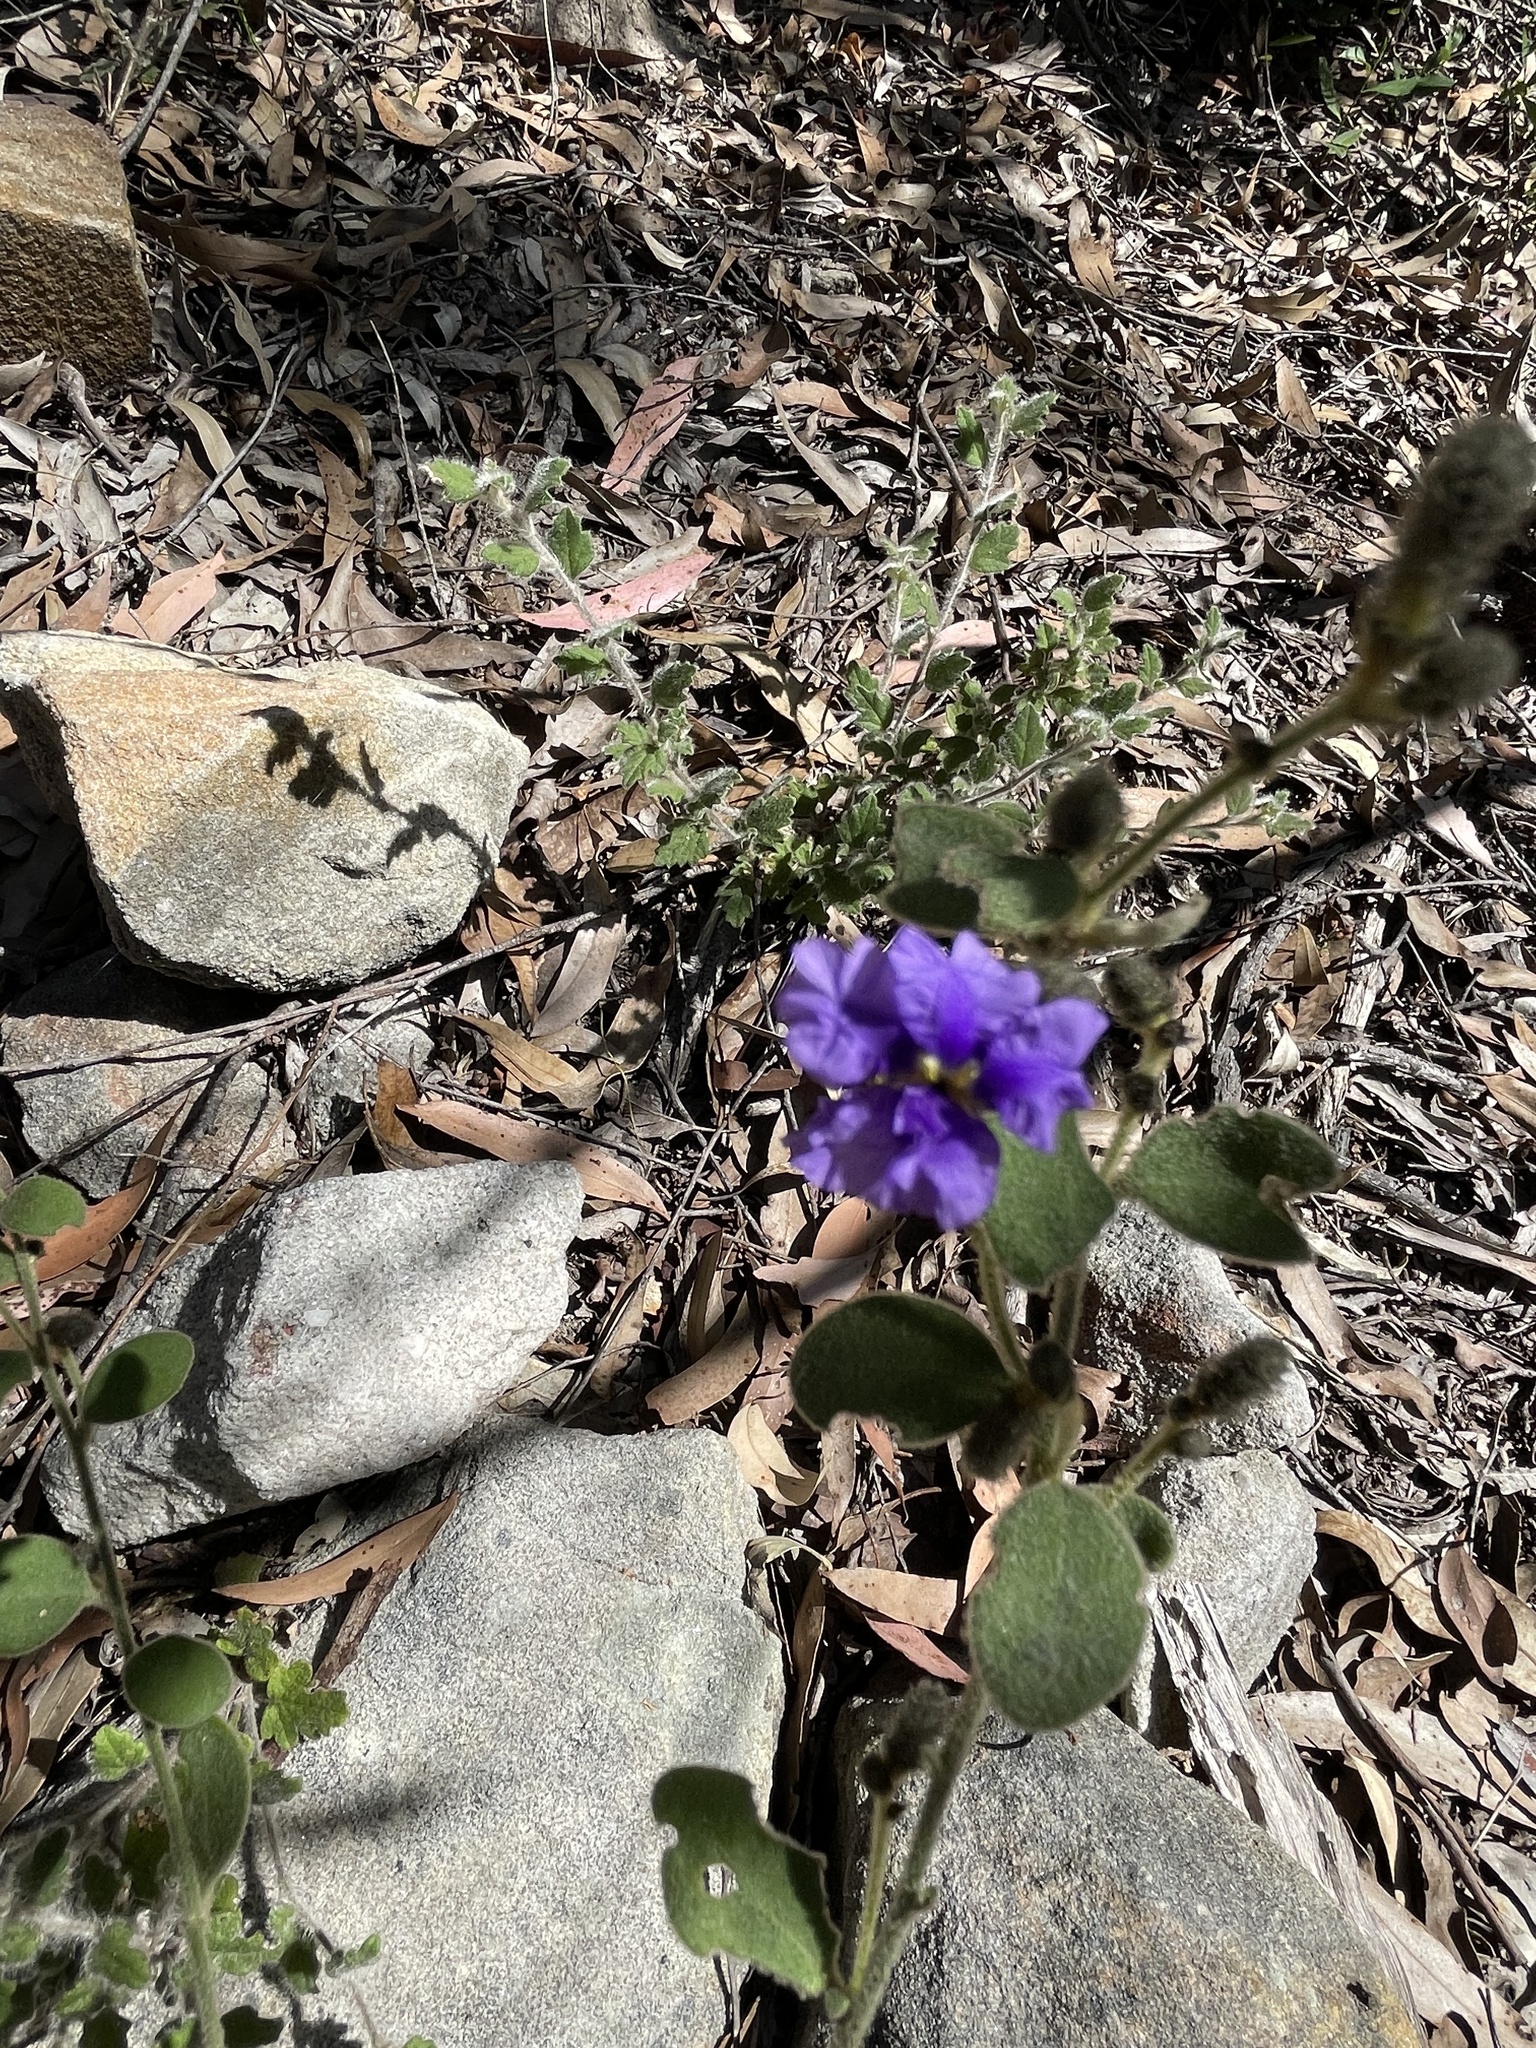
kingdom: Plantae
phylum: Tracheophyta
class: Magnoliopsida
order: Asterales
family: Goodeniaceae
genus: Dampiera
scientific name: Dampiera purpurea
